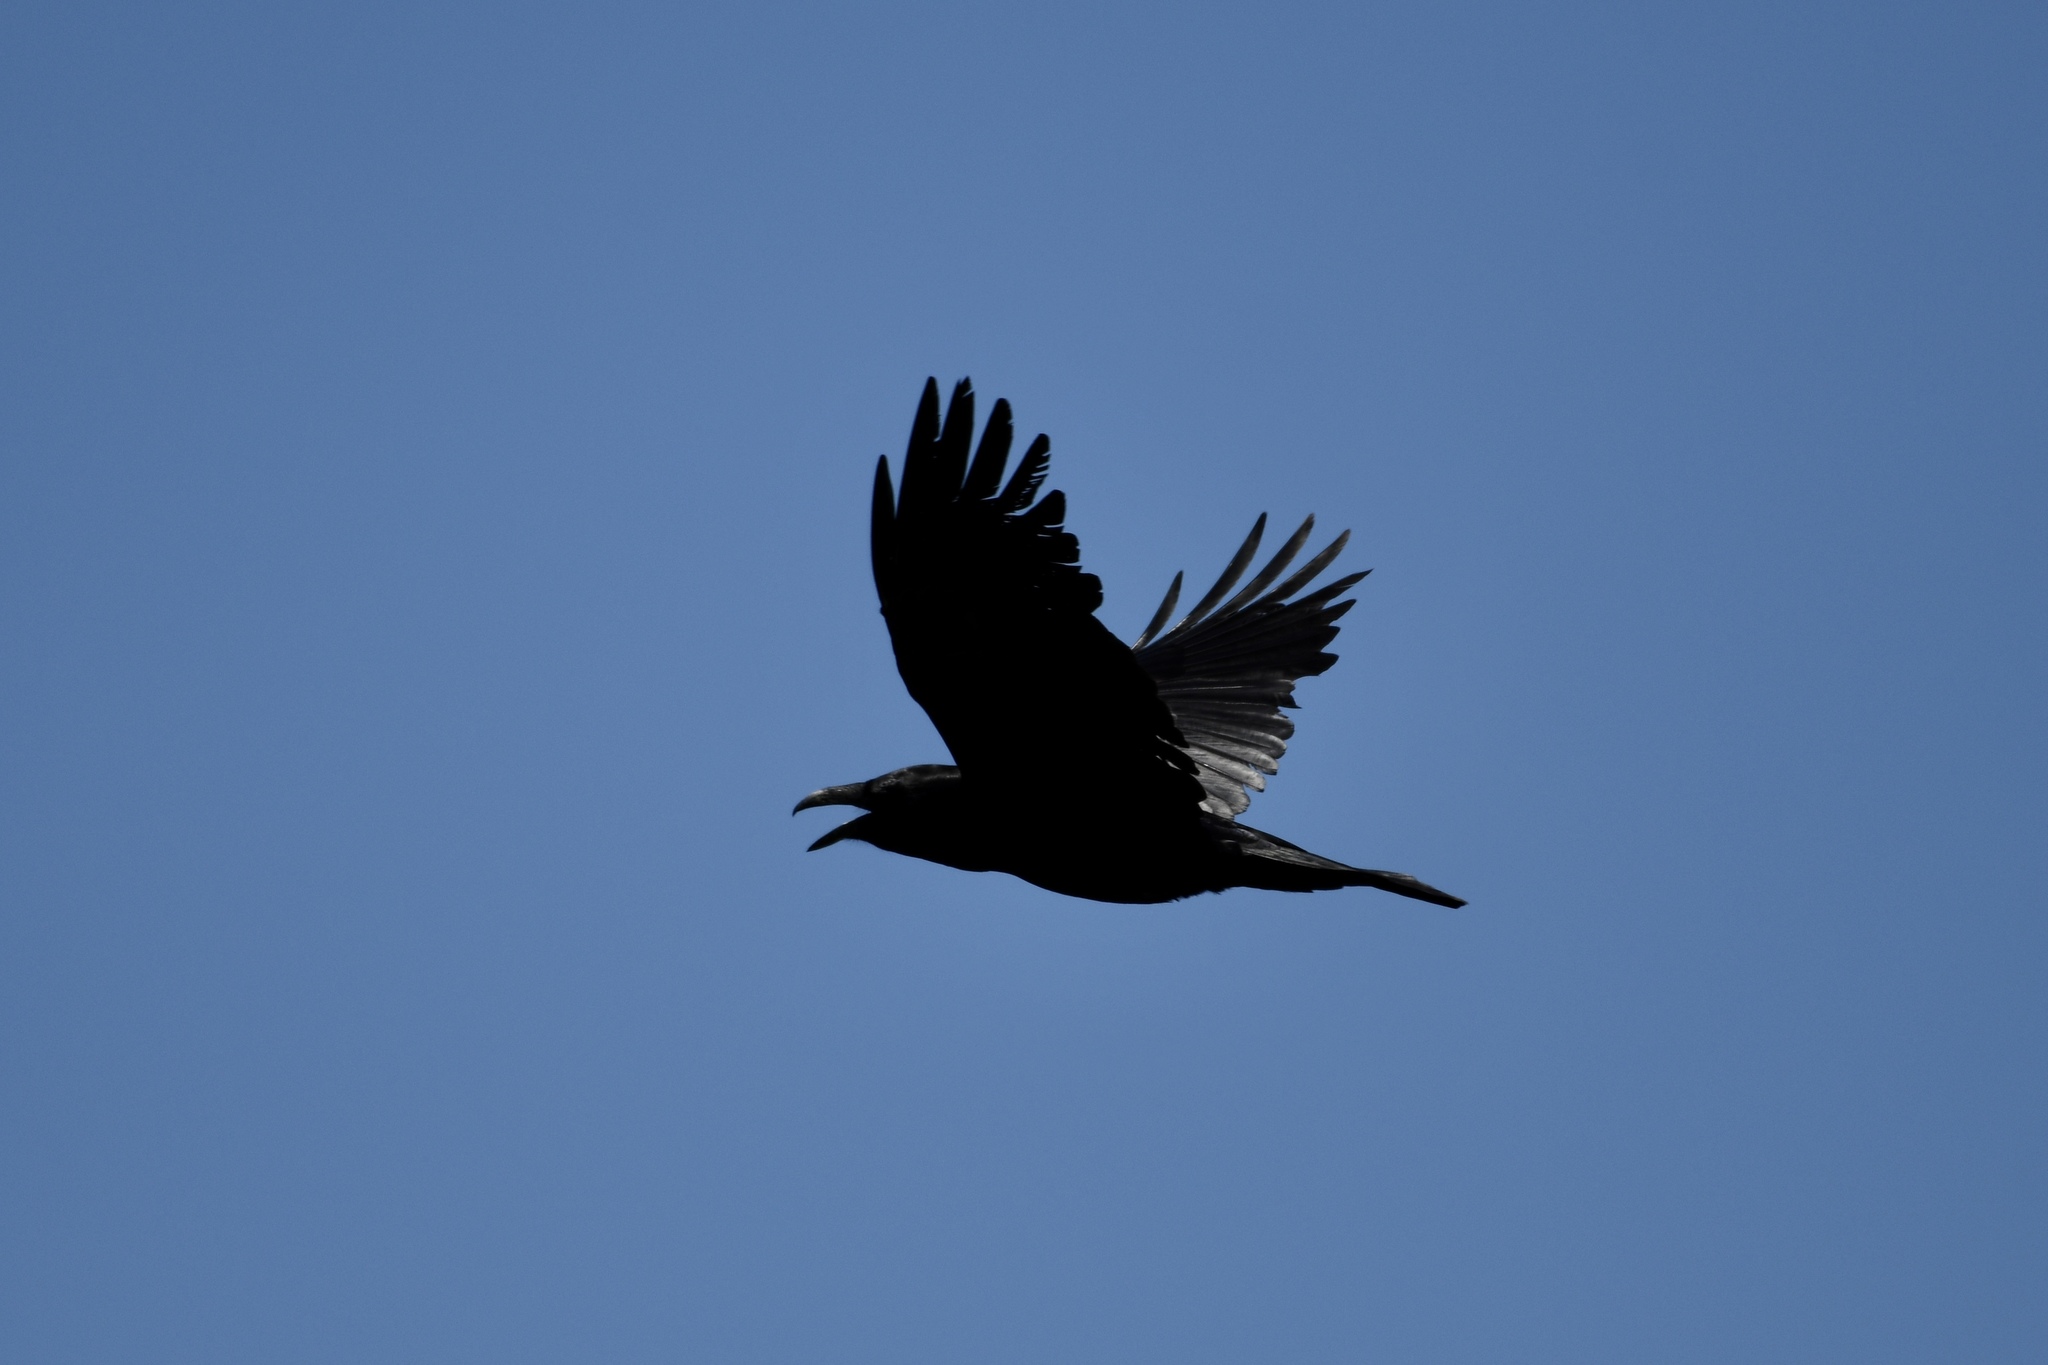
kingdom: Animalia
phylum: Chordata
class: Aves
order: Passeriformes
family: Corvidae
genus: Corvus
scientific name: Corvus corax
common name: Common raven
